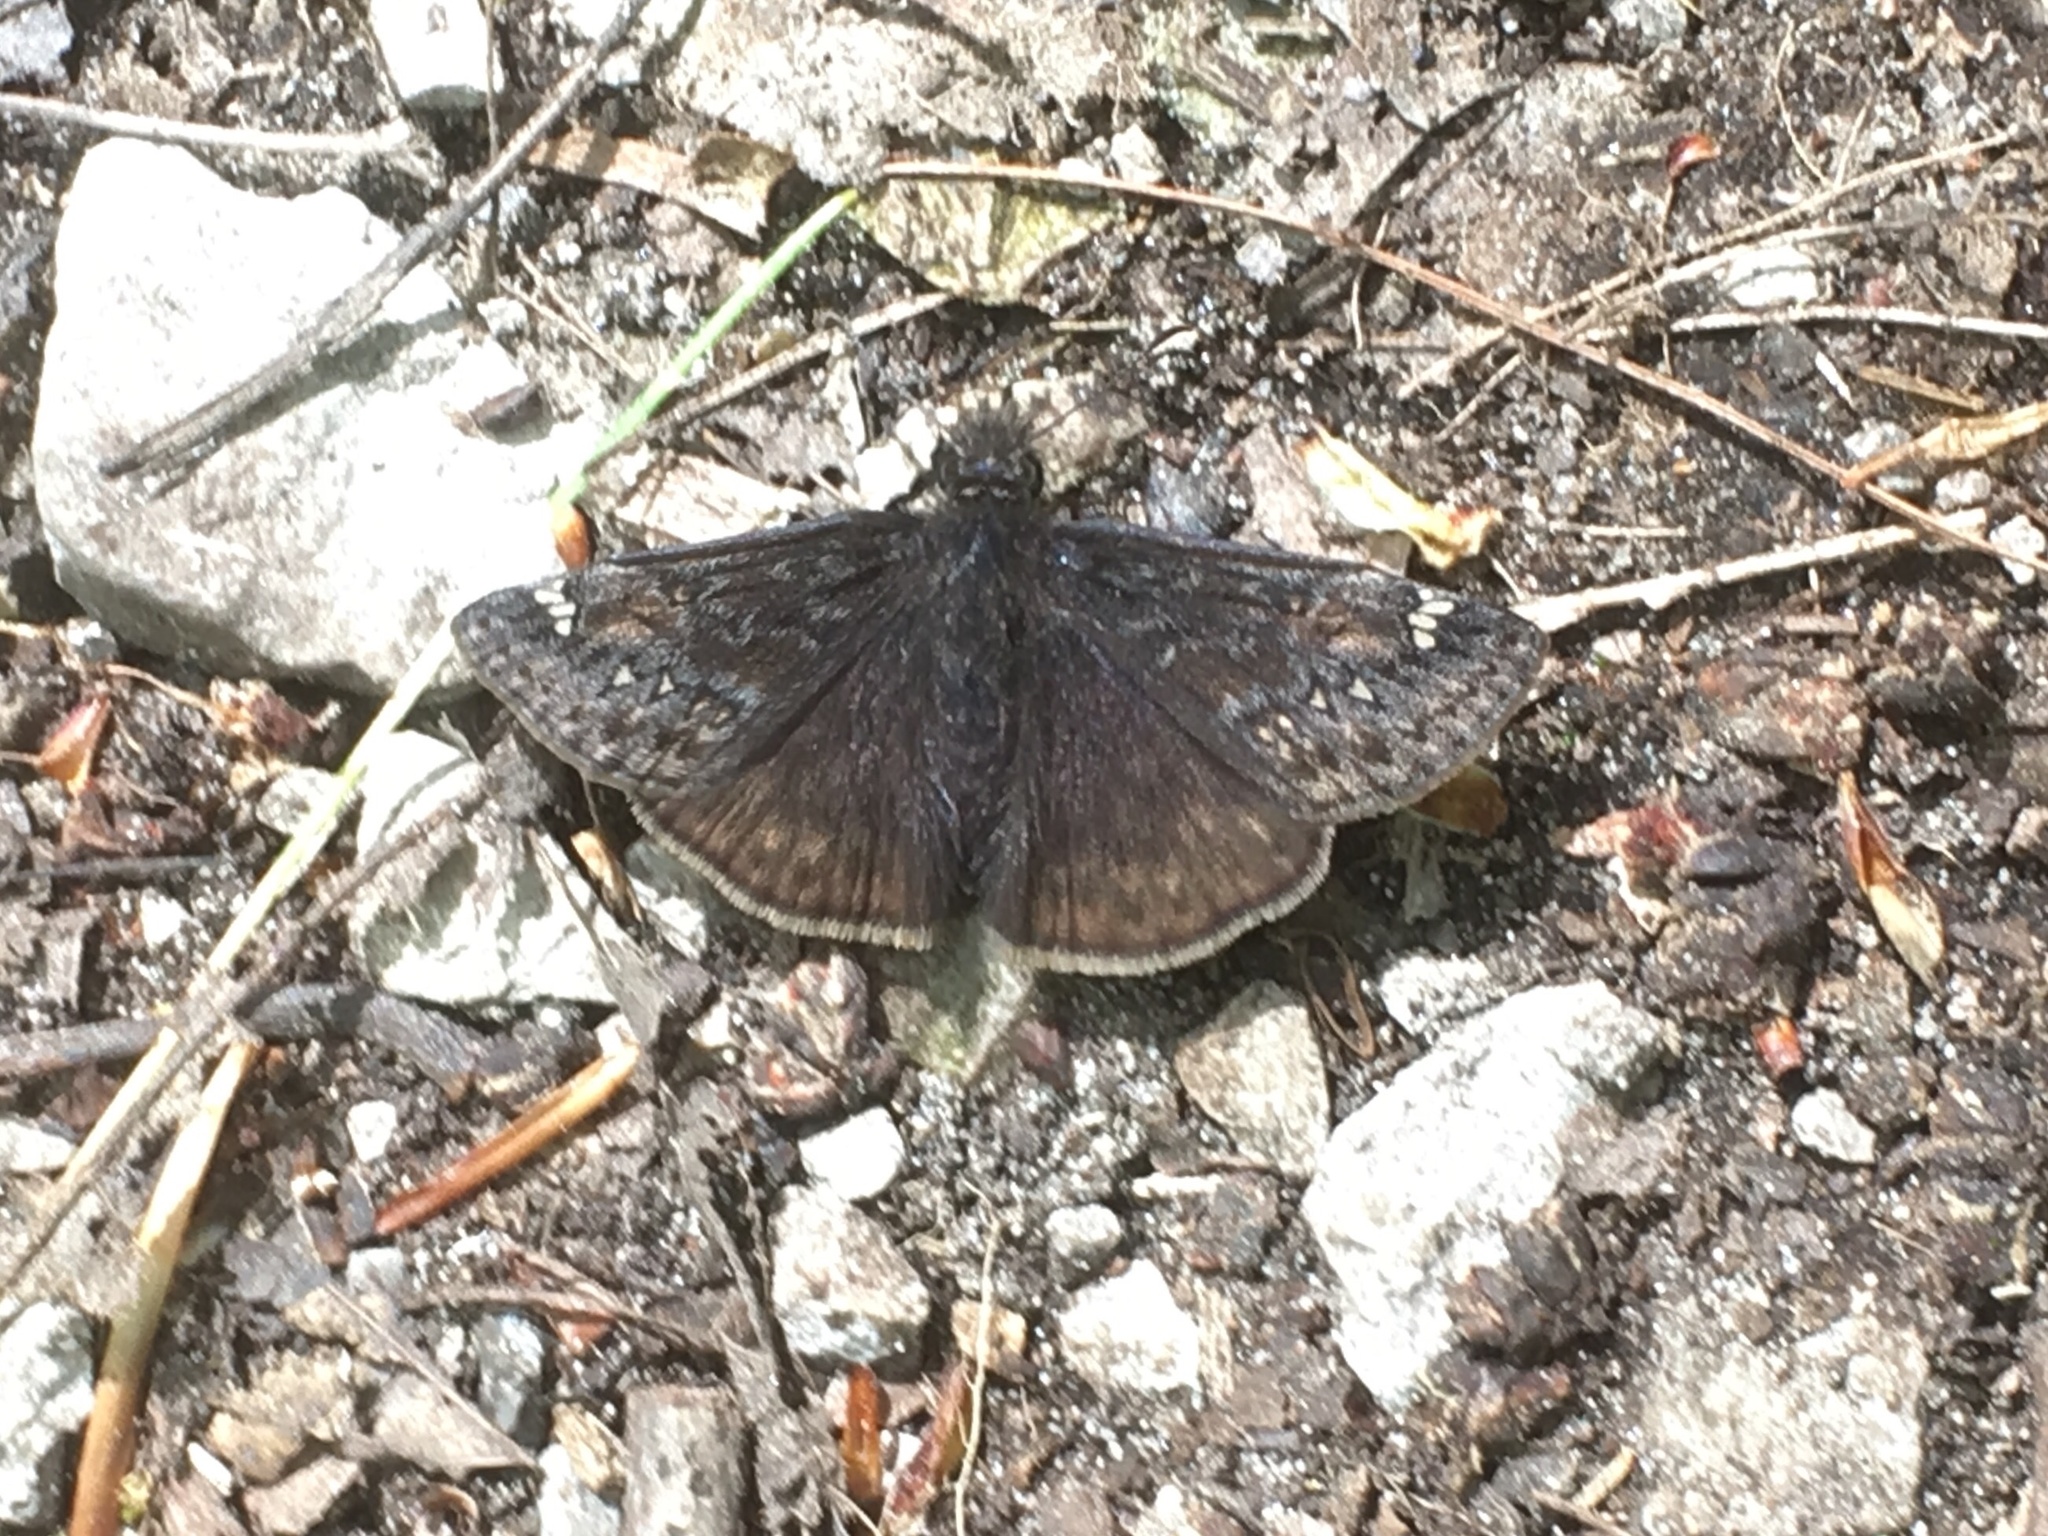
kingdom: Animalia
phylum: Arthropoda
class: Insecta
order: Lepidoptera
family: Hesperiidae
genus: Erynnis
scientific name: Erynnis juvenalis
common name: Juvenal's duskywing
